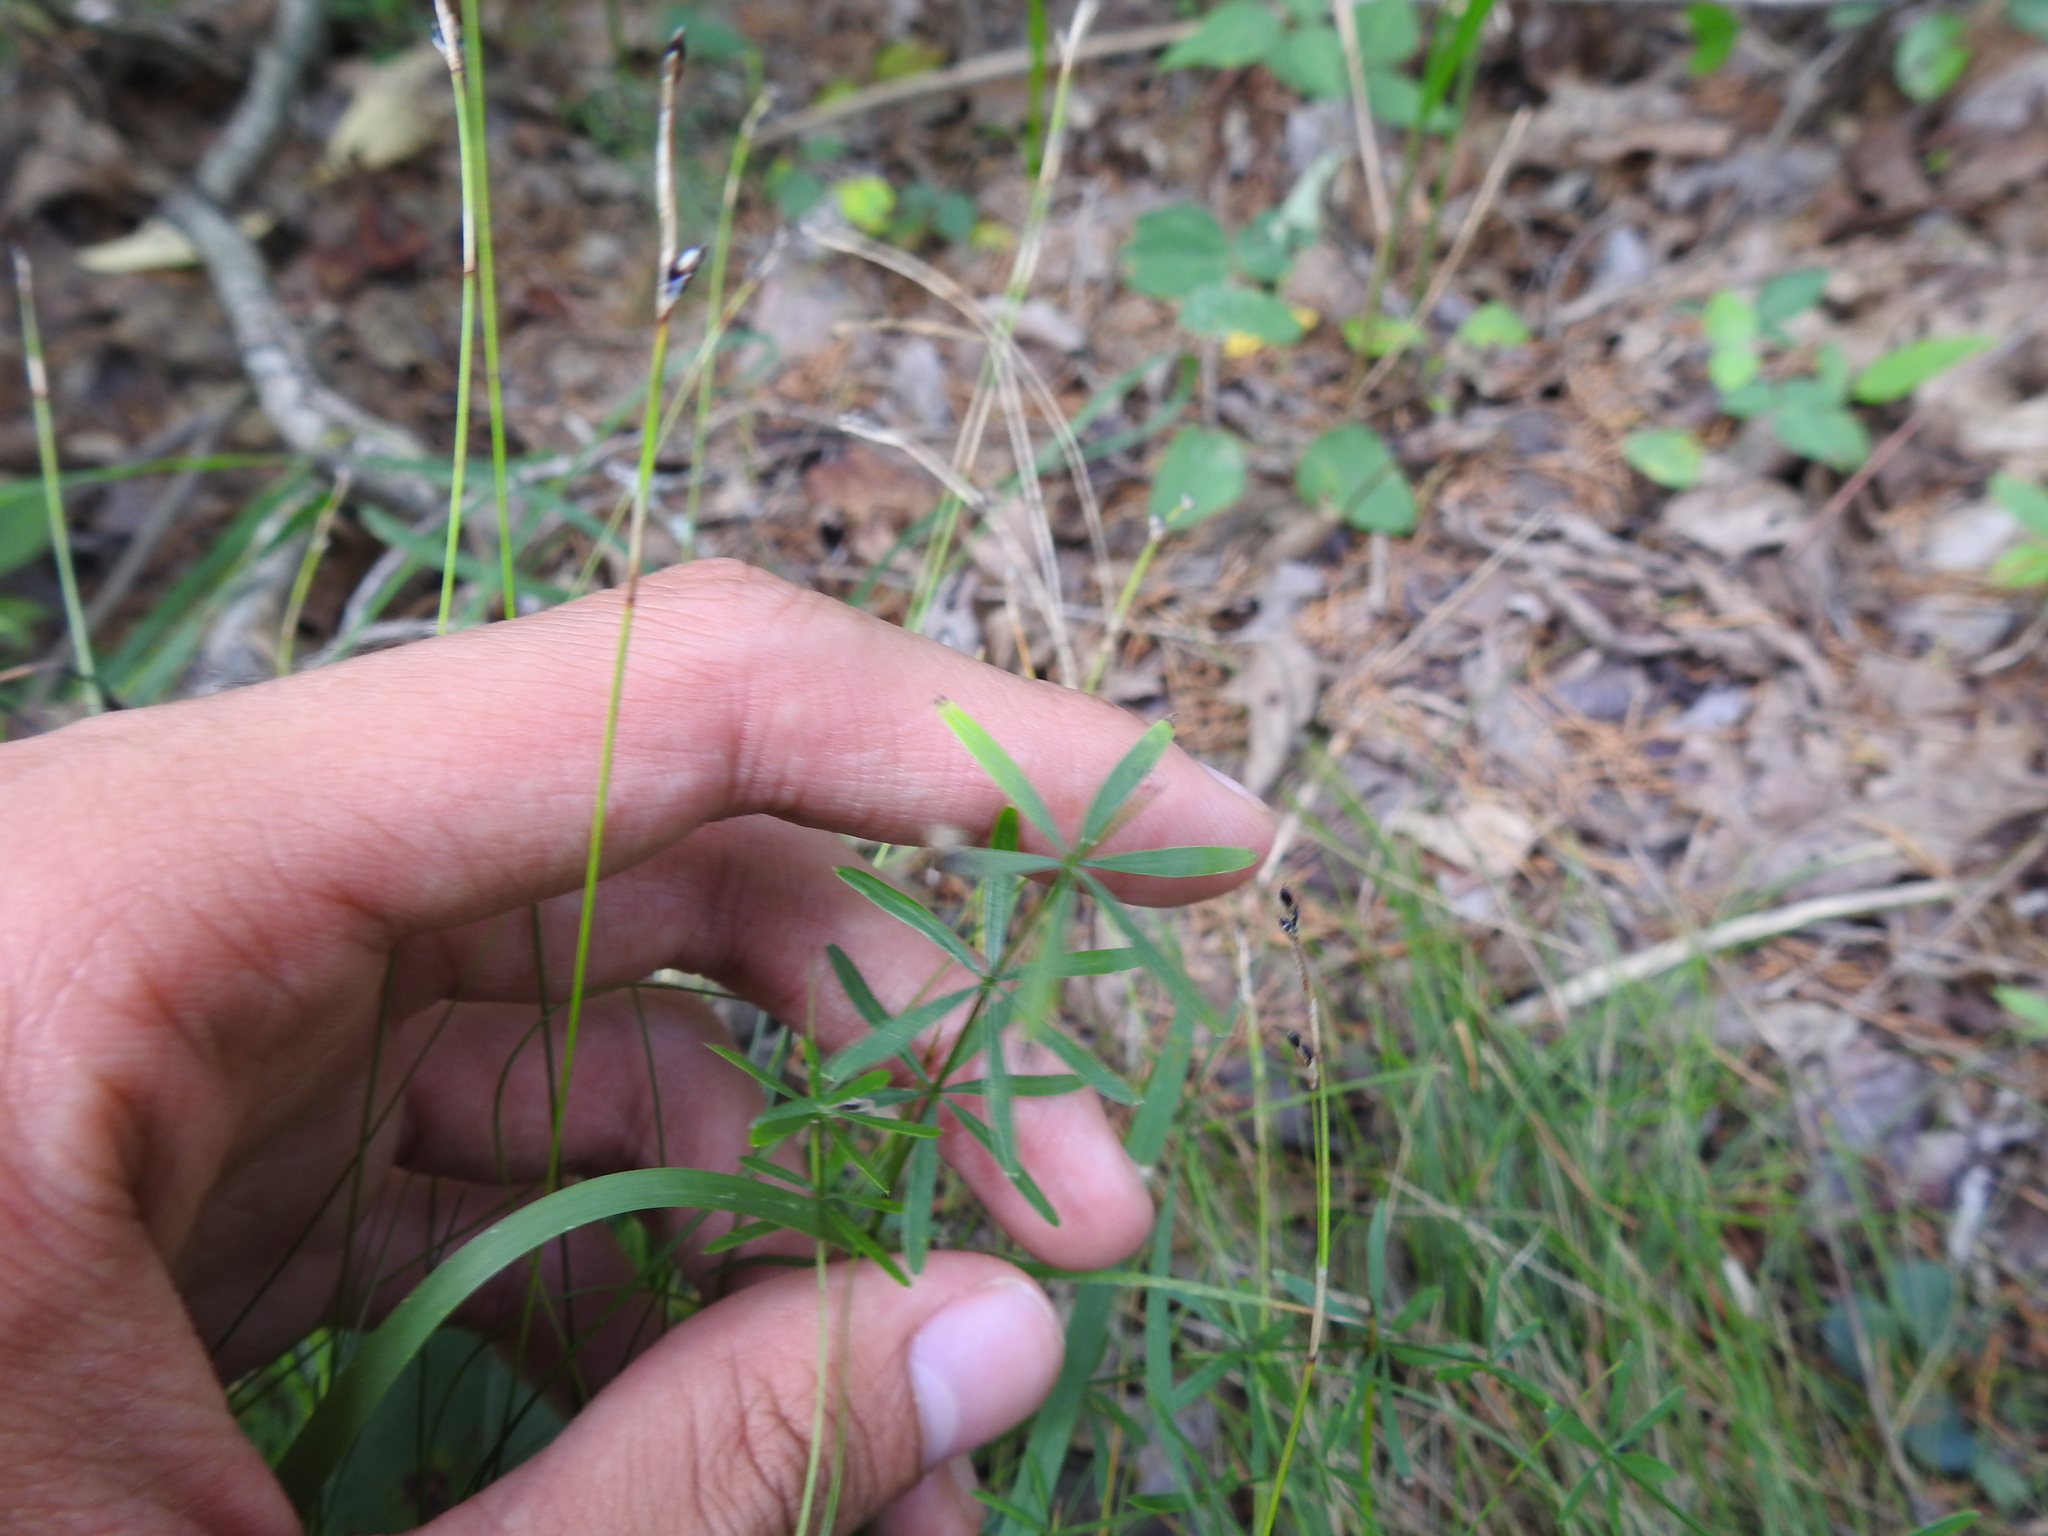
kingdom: Plantae
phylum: Tracheophyta
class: Magnoliopsida
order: Gentianales
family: Rubiaceae
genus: Galium
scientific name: Galium concinnum
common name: Shining bedstraw
